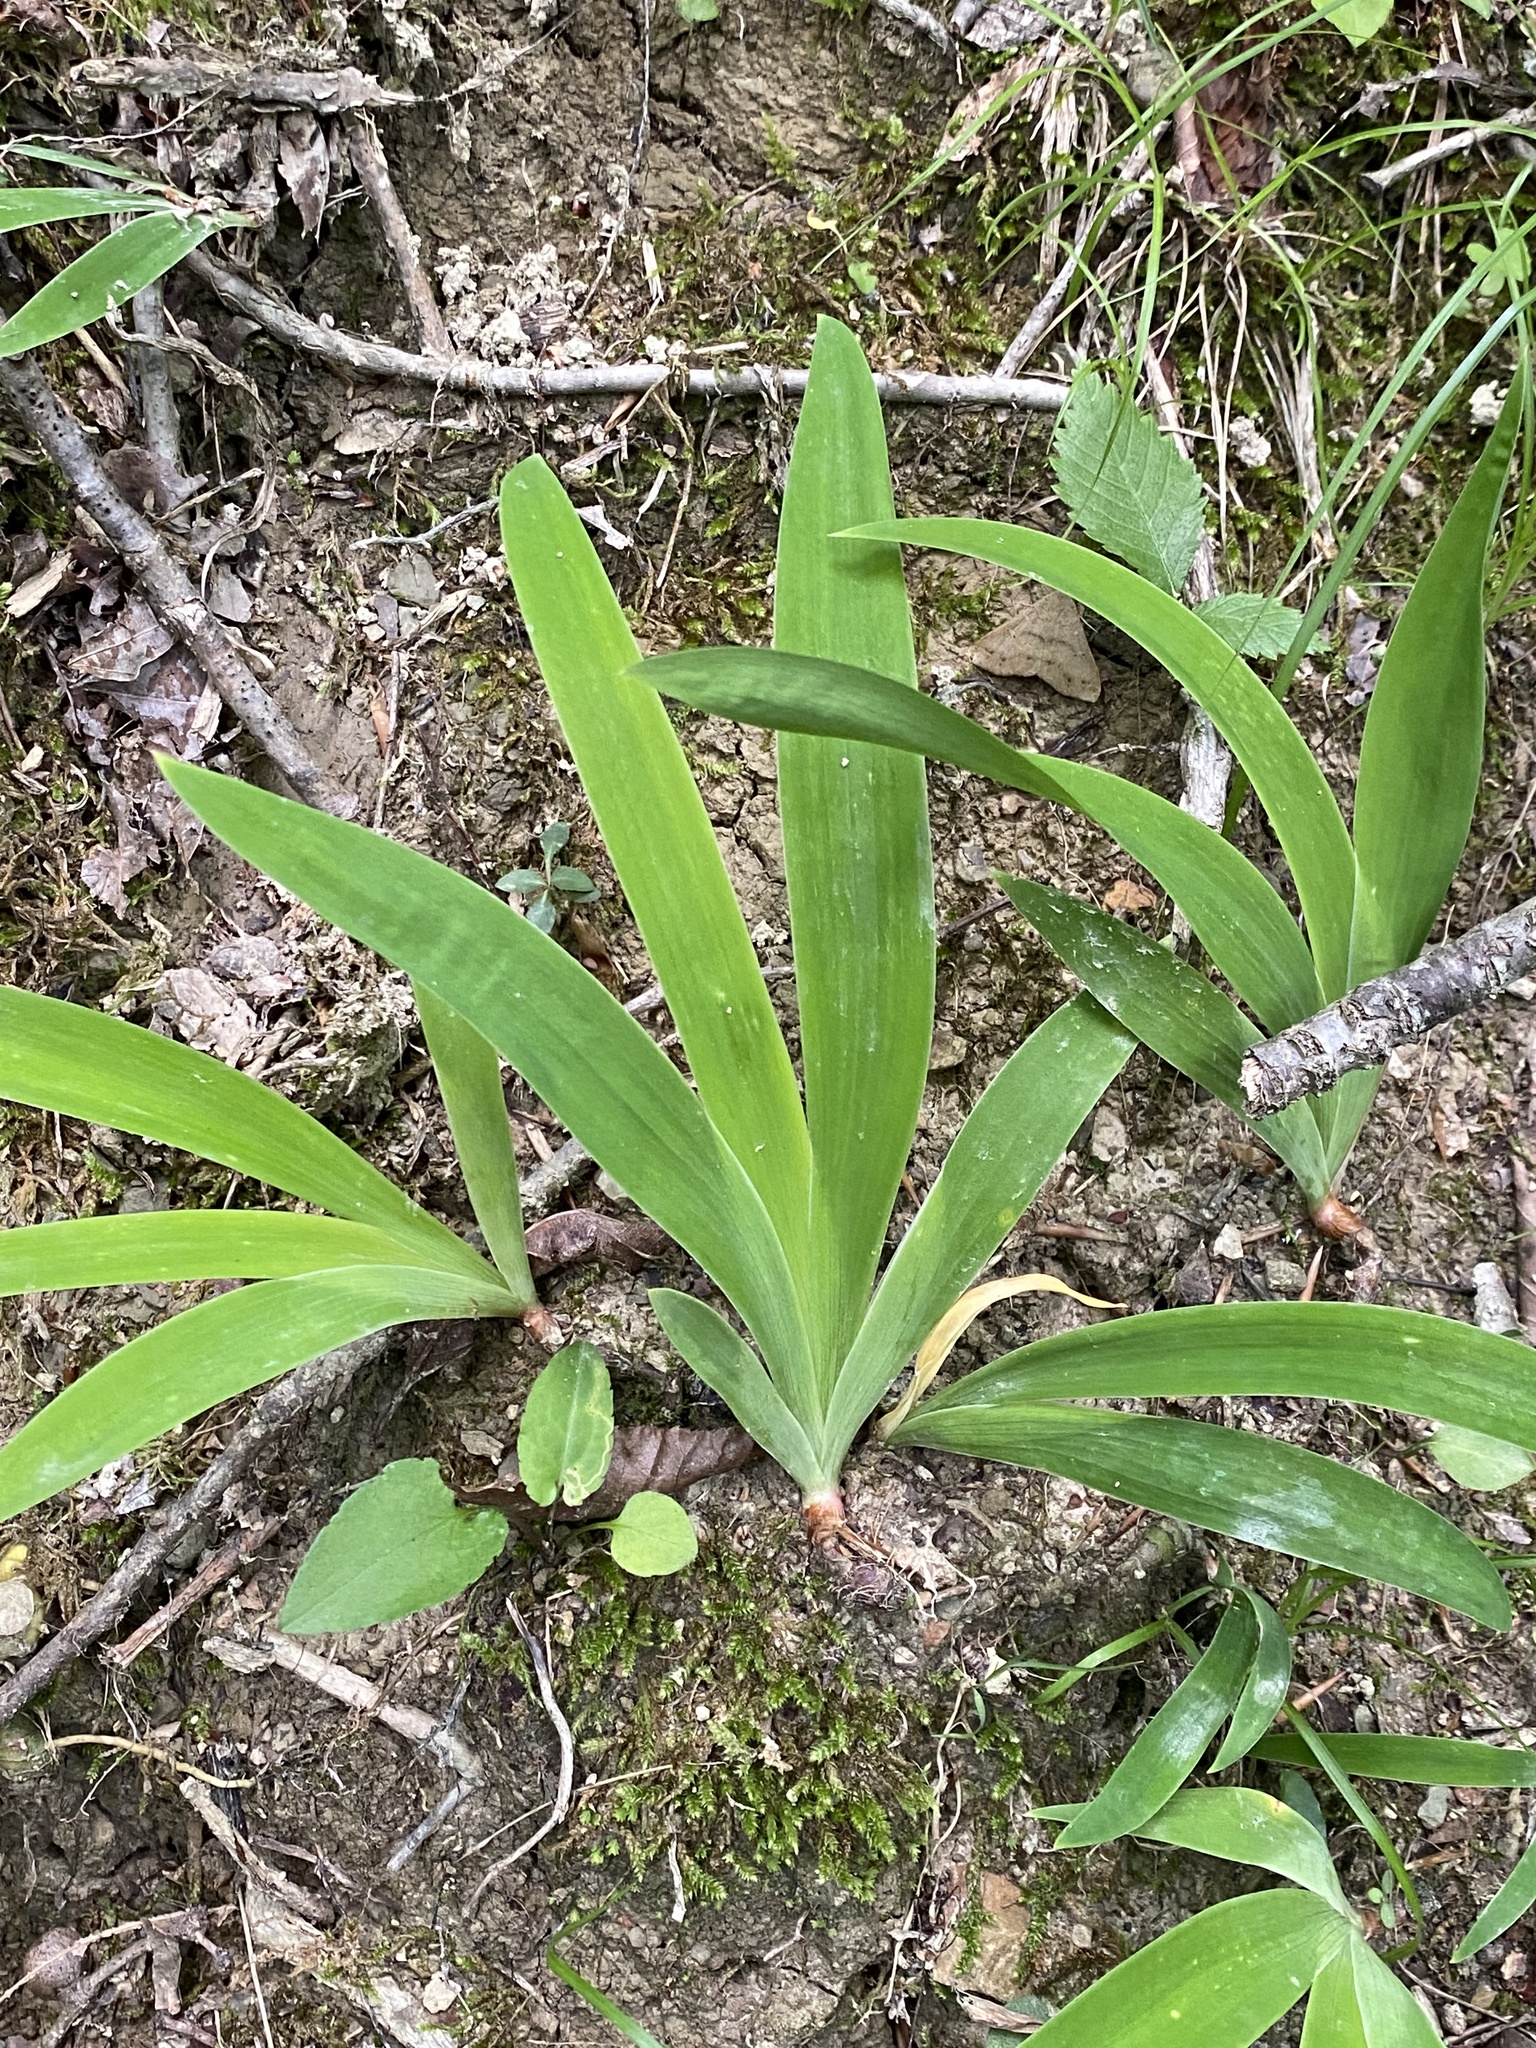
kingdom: Plantae
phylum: Tracheophyta
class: Liliopsida
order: Asparagales
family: Iridaceae
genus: Iris
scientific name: Iris cristata
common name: Crested iris
